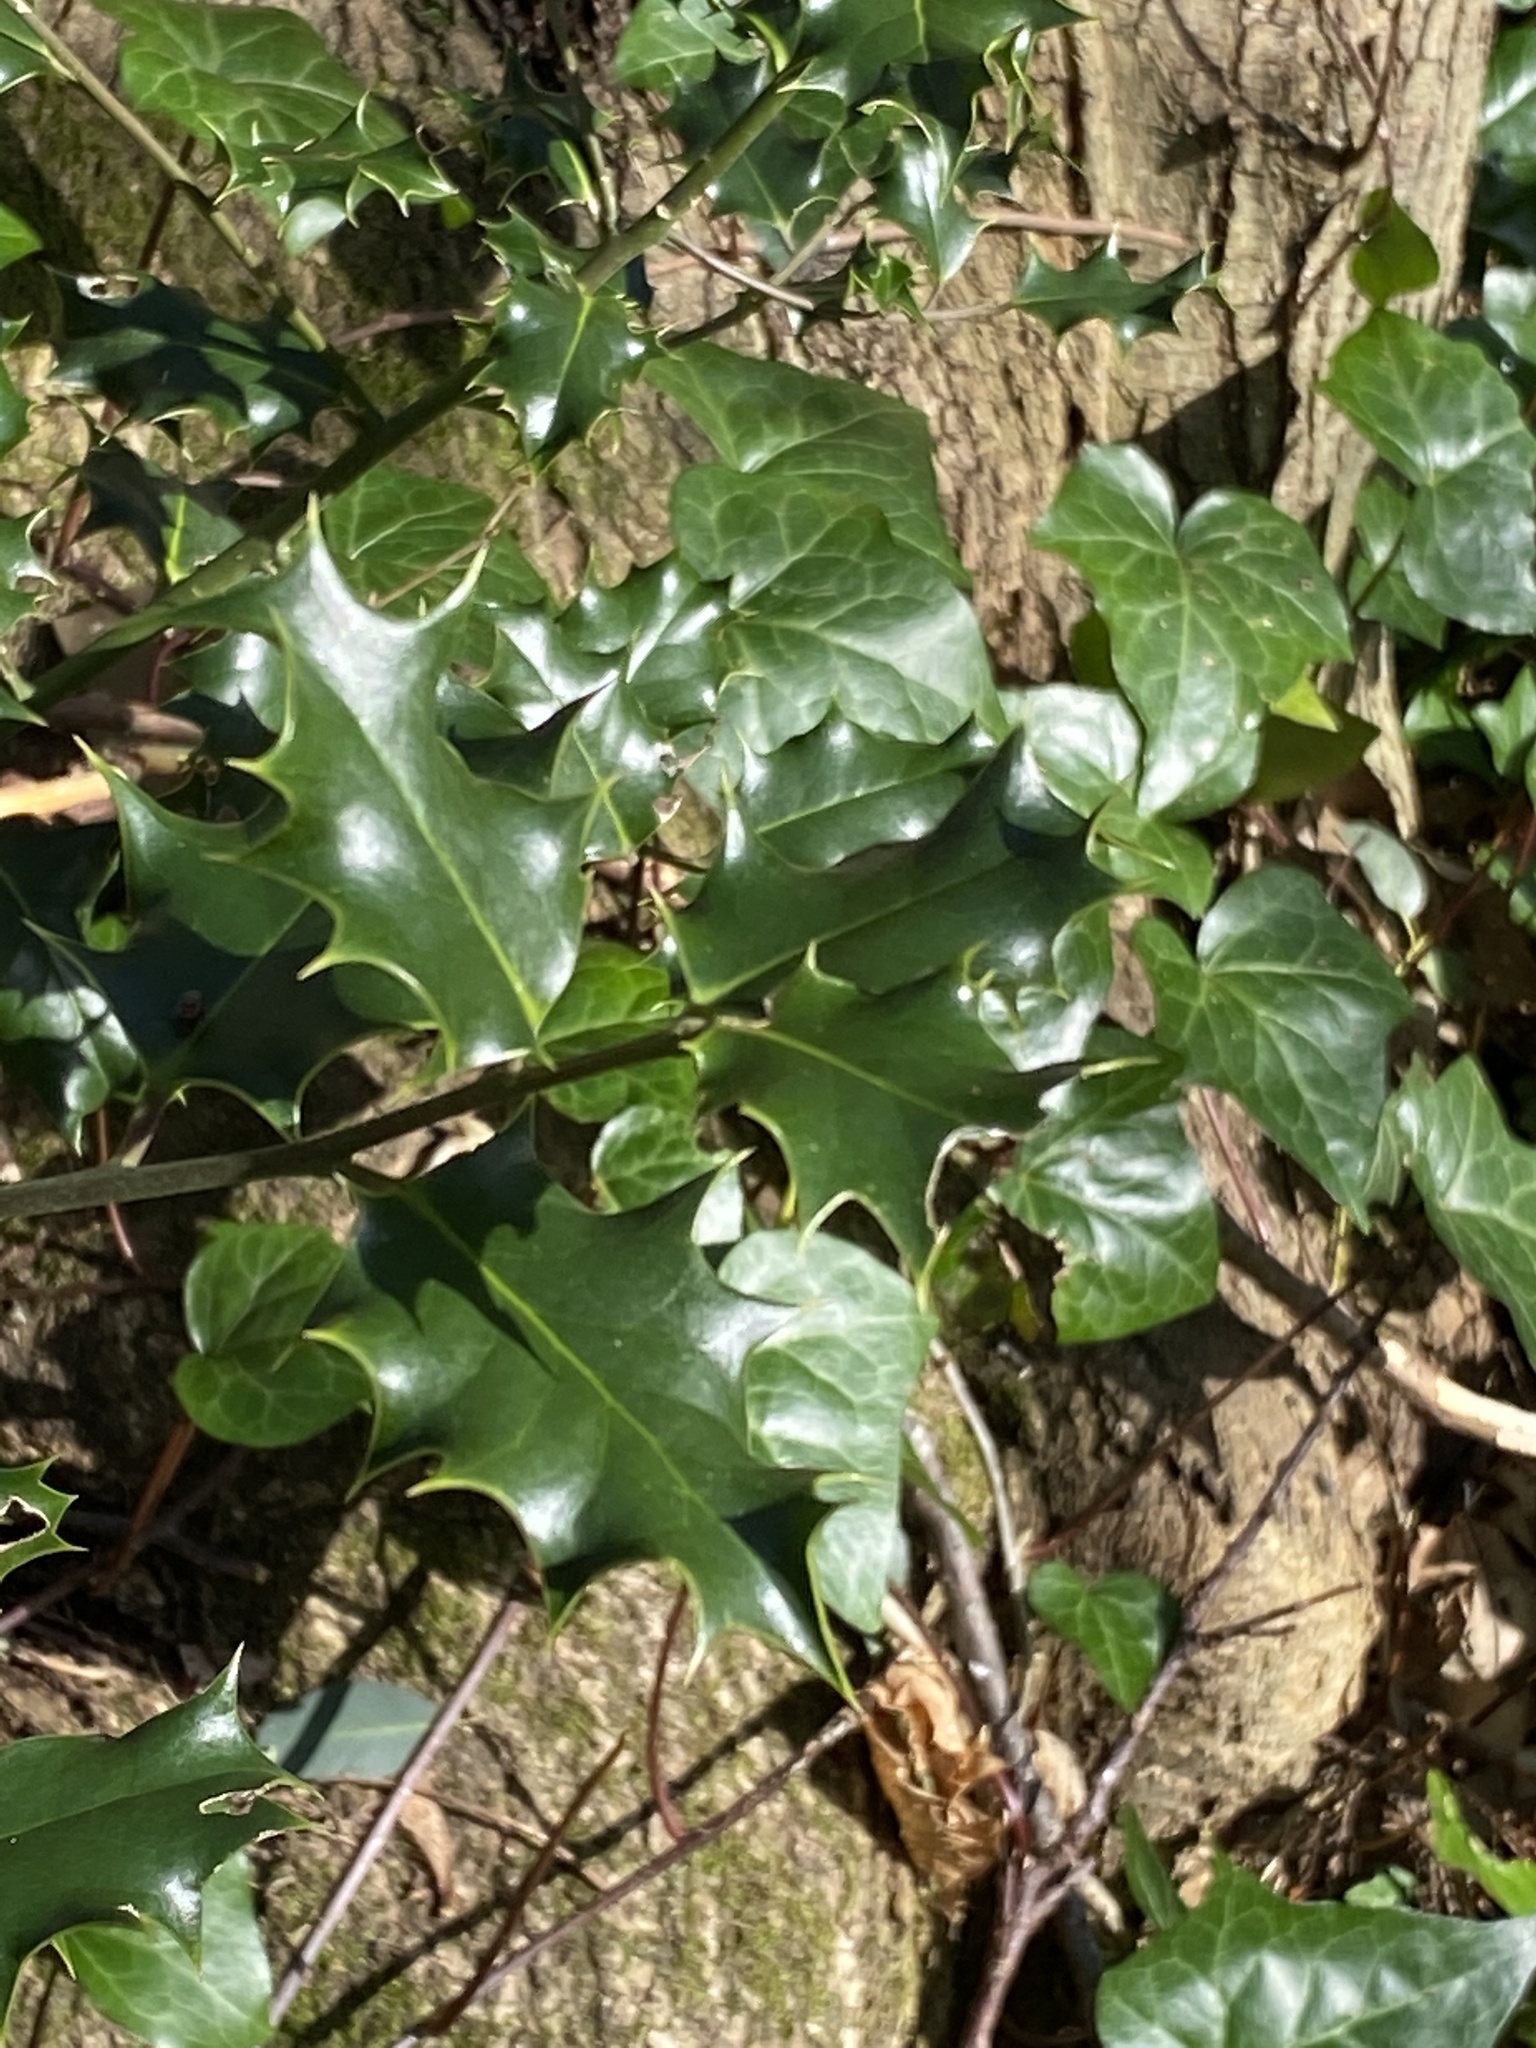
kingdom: Plantae
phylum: Tracheophyta
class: Magnoliopsida
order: Aquifoliales
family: Aquifoliaceae
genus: Ilex
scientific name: Ilex aquifolium
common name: English holly
